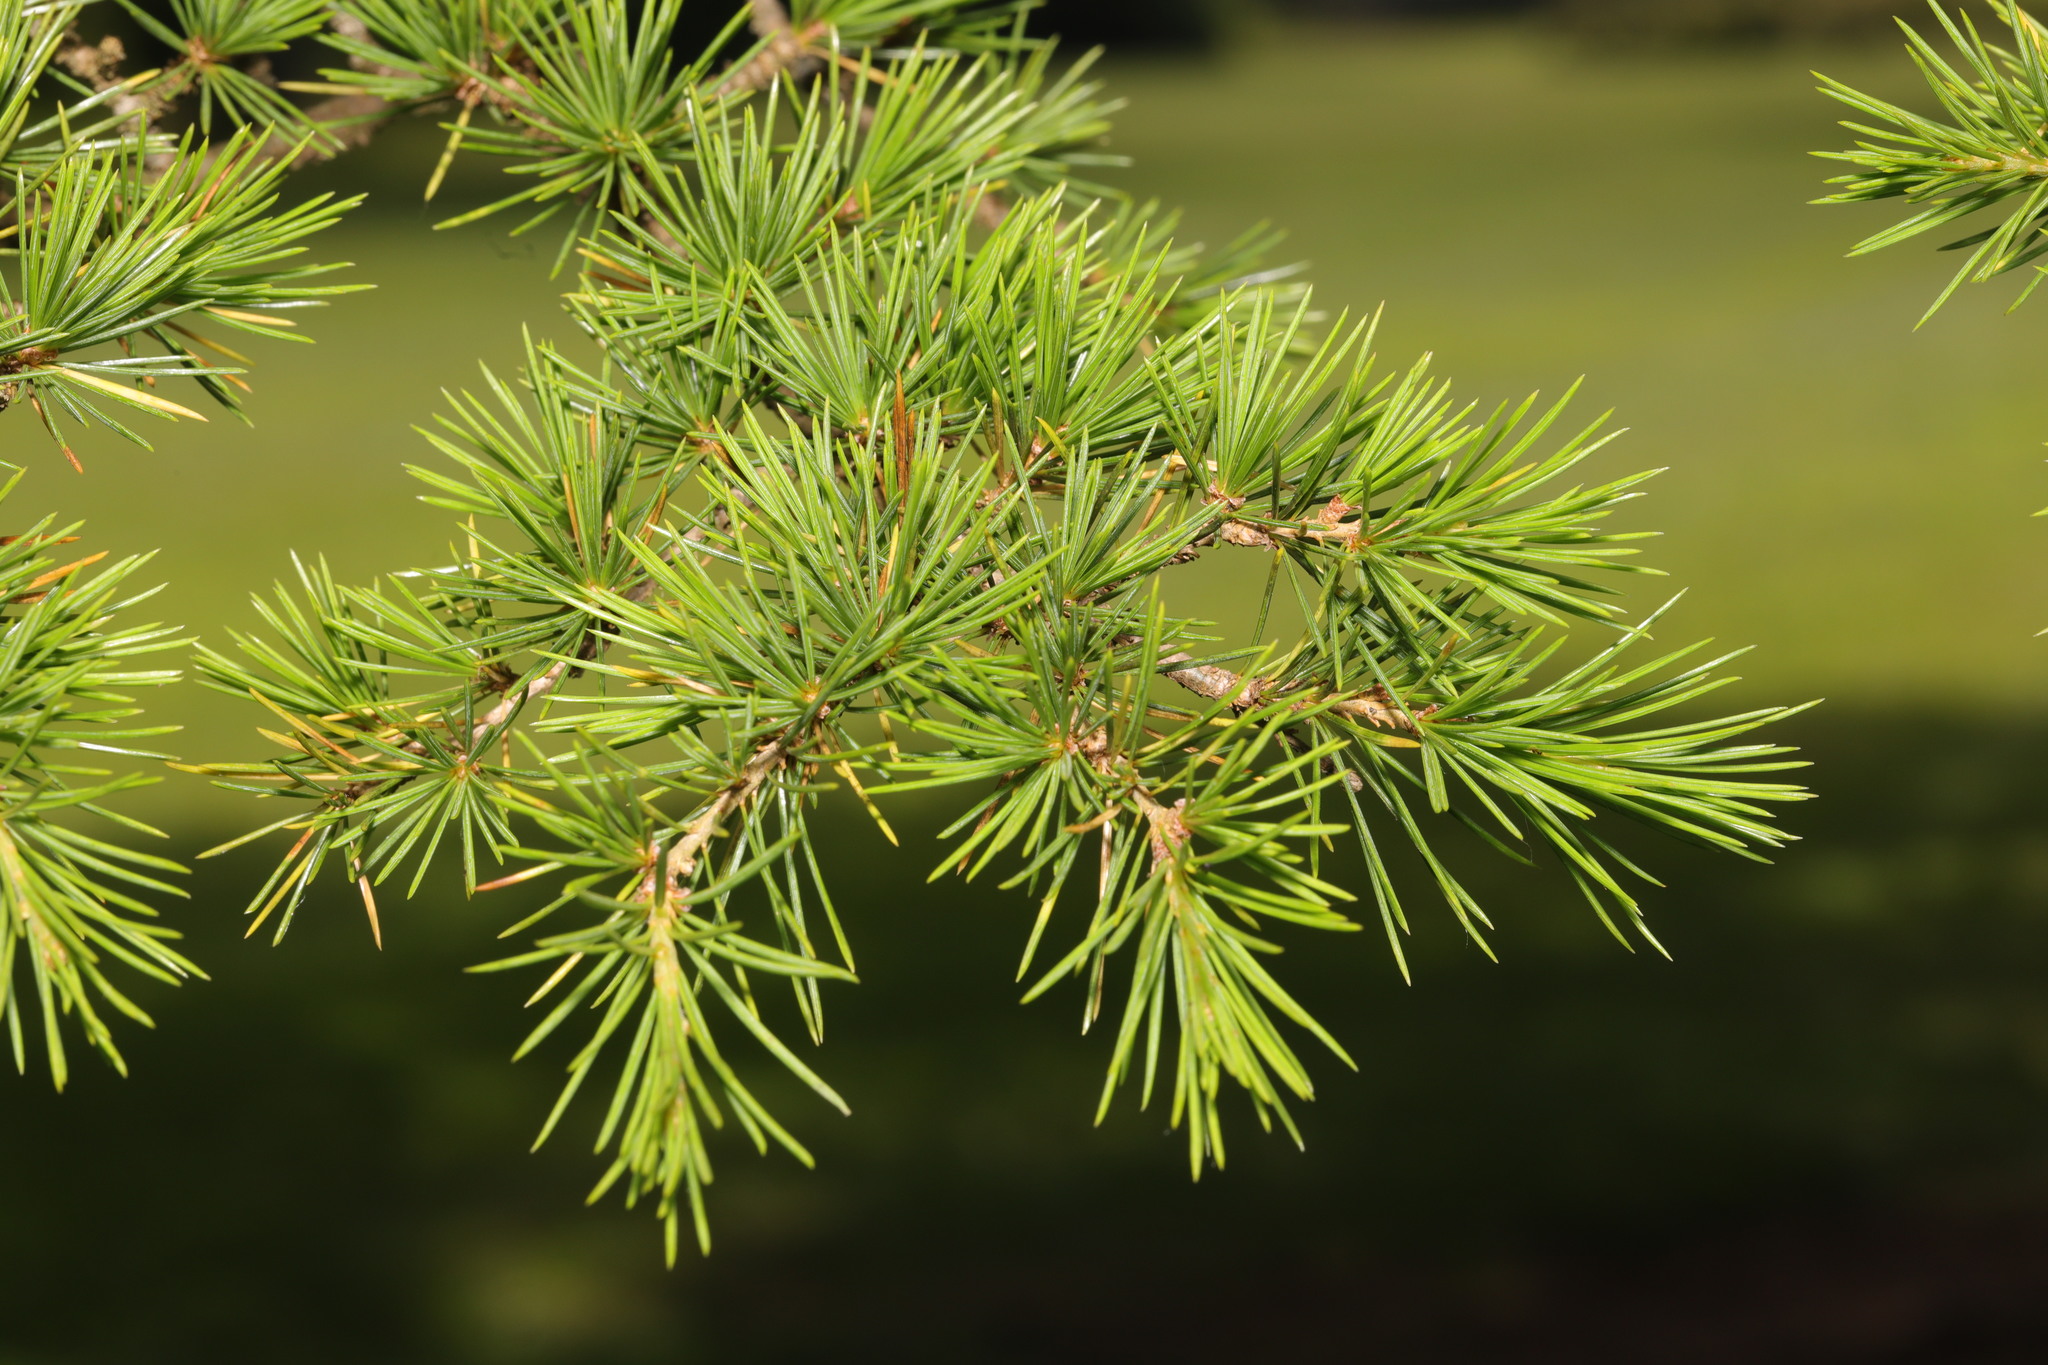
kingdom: Plantae
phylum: Tracheophyta
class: Pinopsida
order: Pinales
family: Pinaceae
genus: Cedrus
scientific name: Cedrus libani
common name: Cedar-of-lebanon
